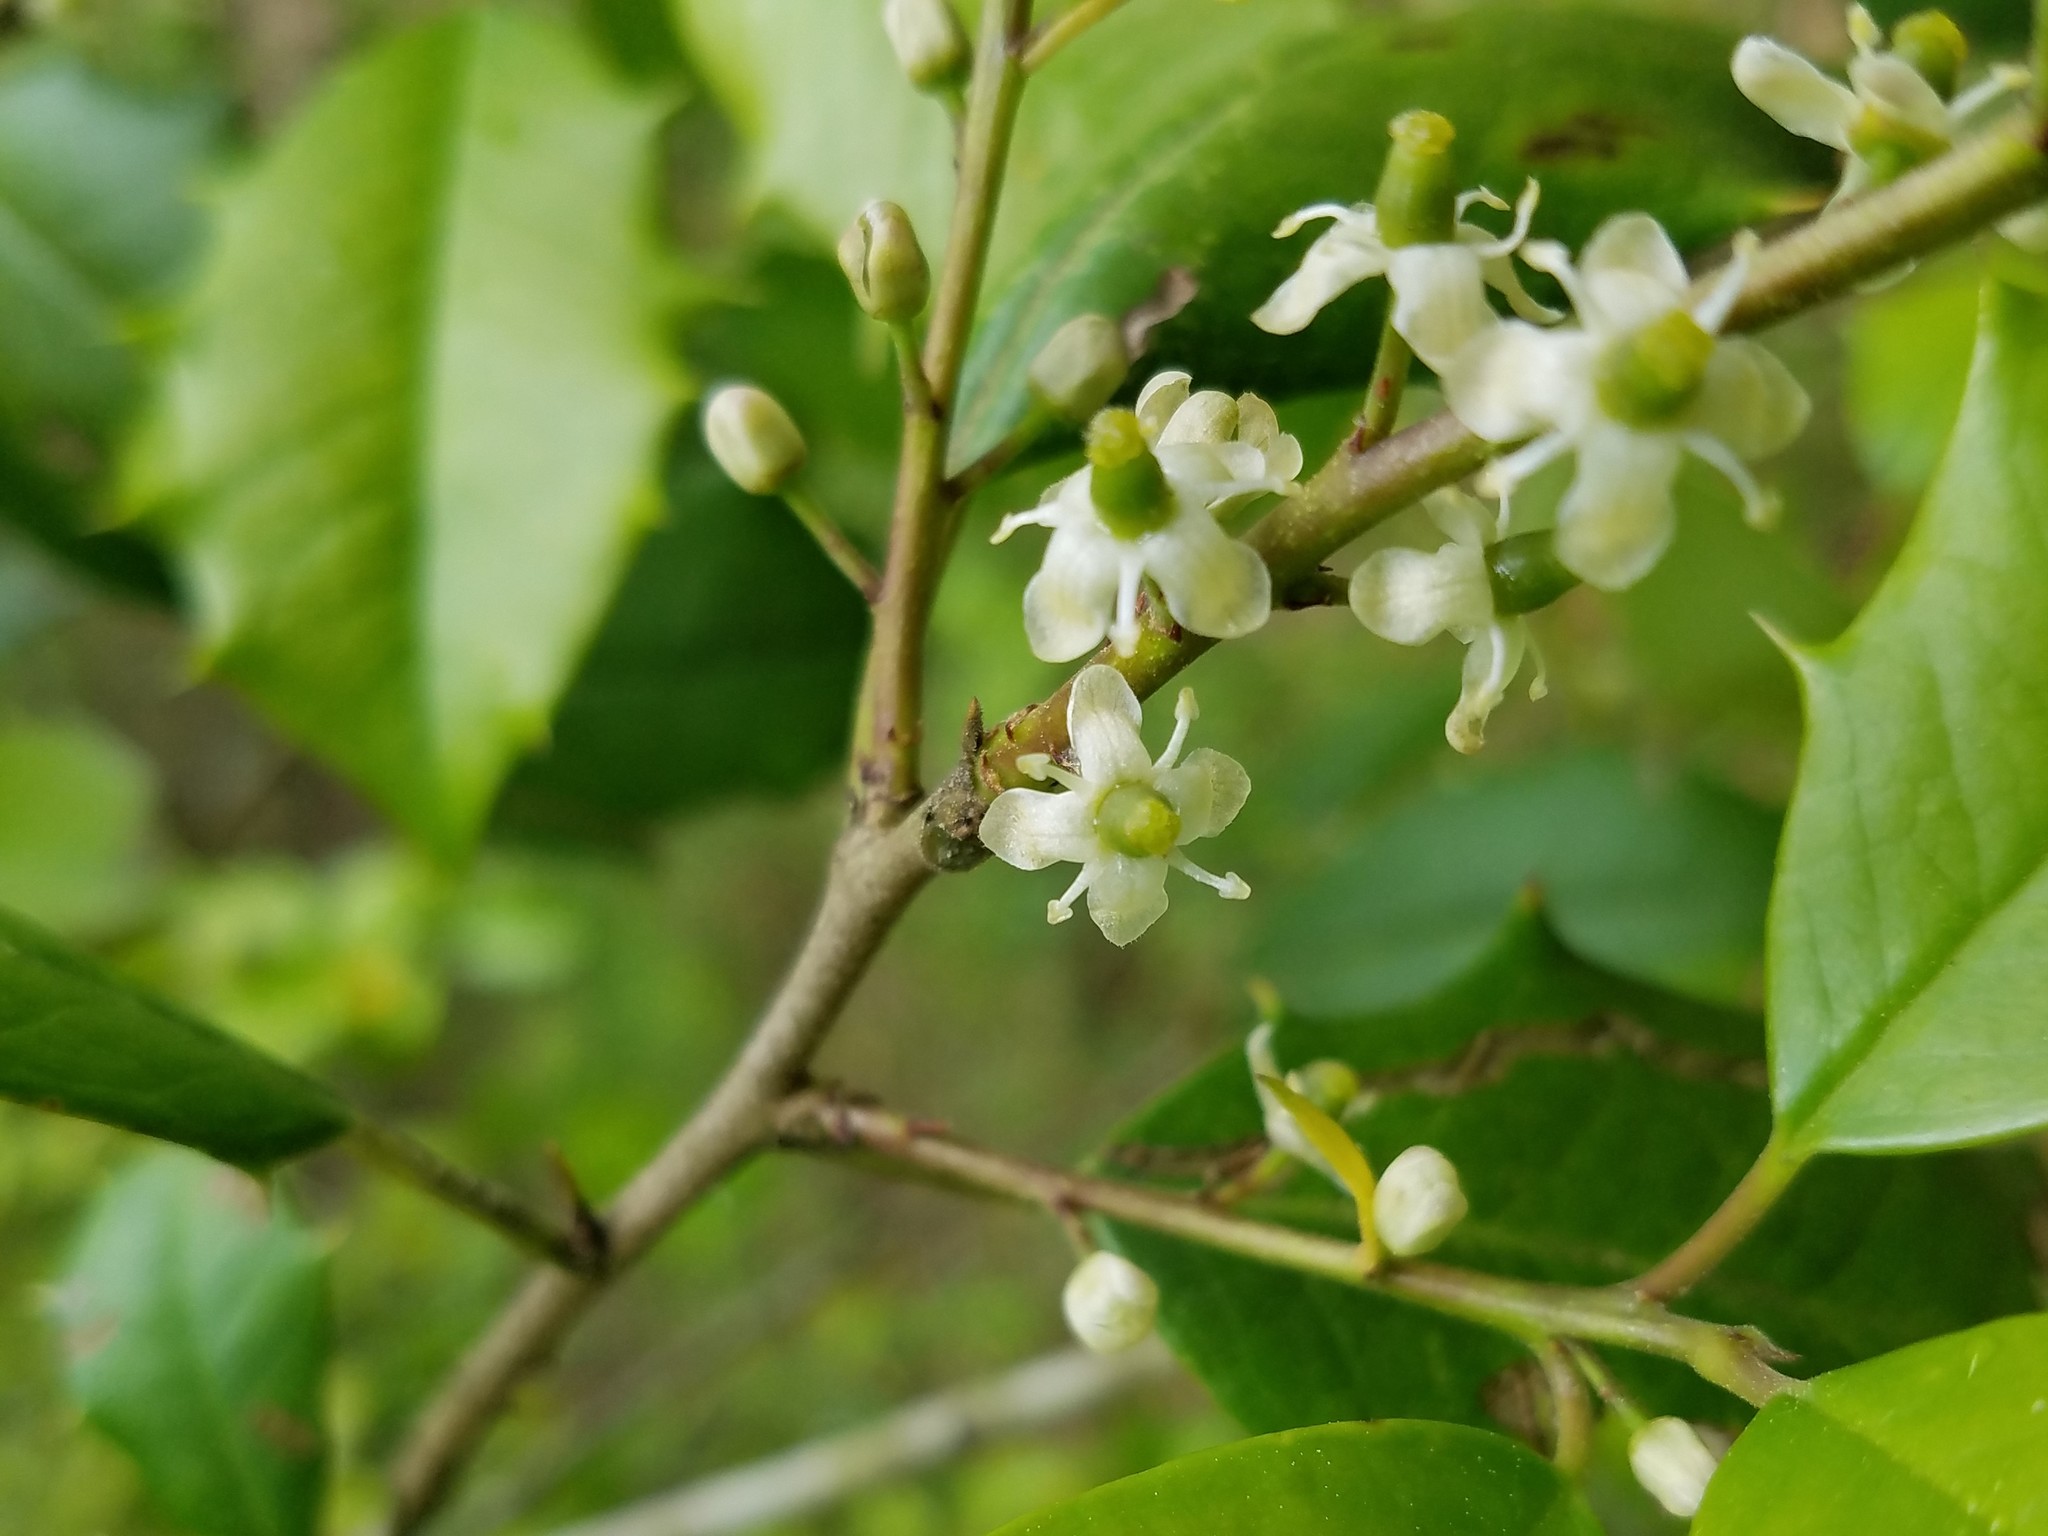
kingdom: Plantae
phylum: Tracheophyta
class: Magnoliopsida
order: Aquifoliales
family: Aquifoliaceae
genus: Ilex
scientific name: Ilex opaca
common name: American holly
